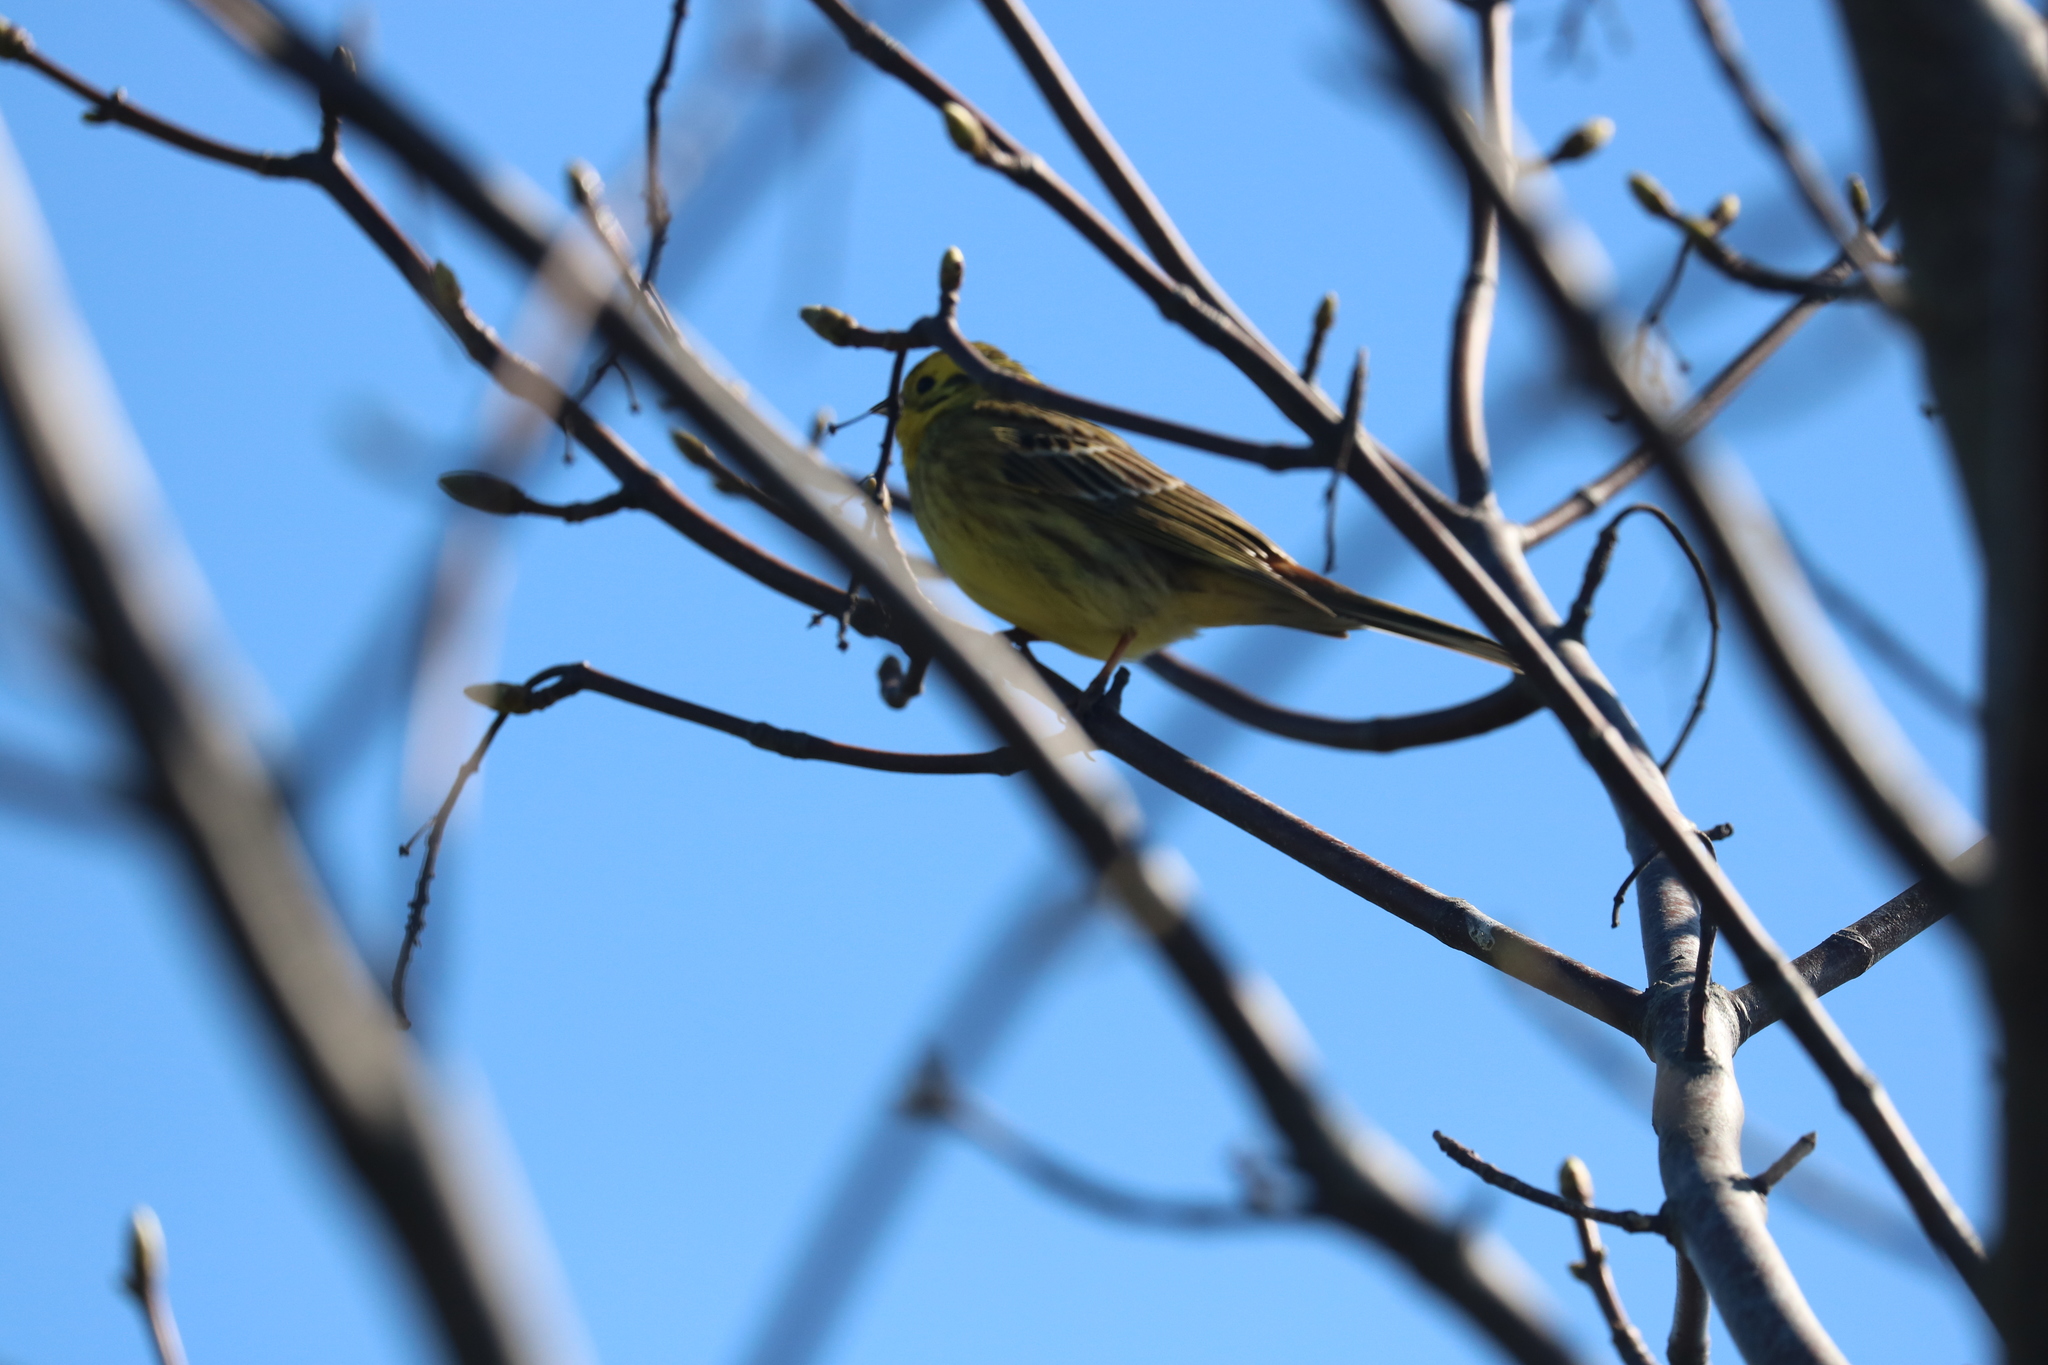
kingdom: Animalia
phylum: Chordata
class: Aves
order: Passeriformes
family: Emberizidae
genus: Emberiza
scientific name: Emberiza citrinella
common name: Yellowhammer
